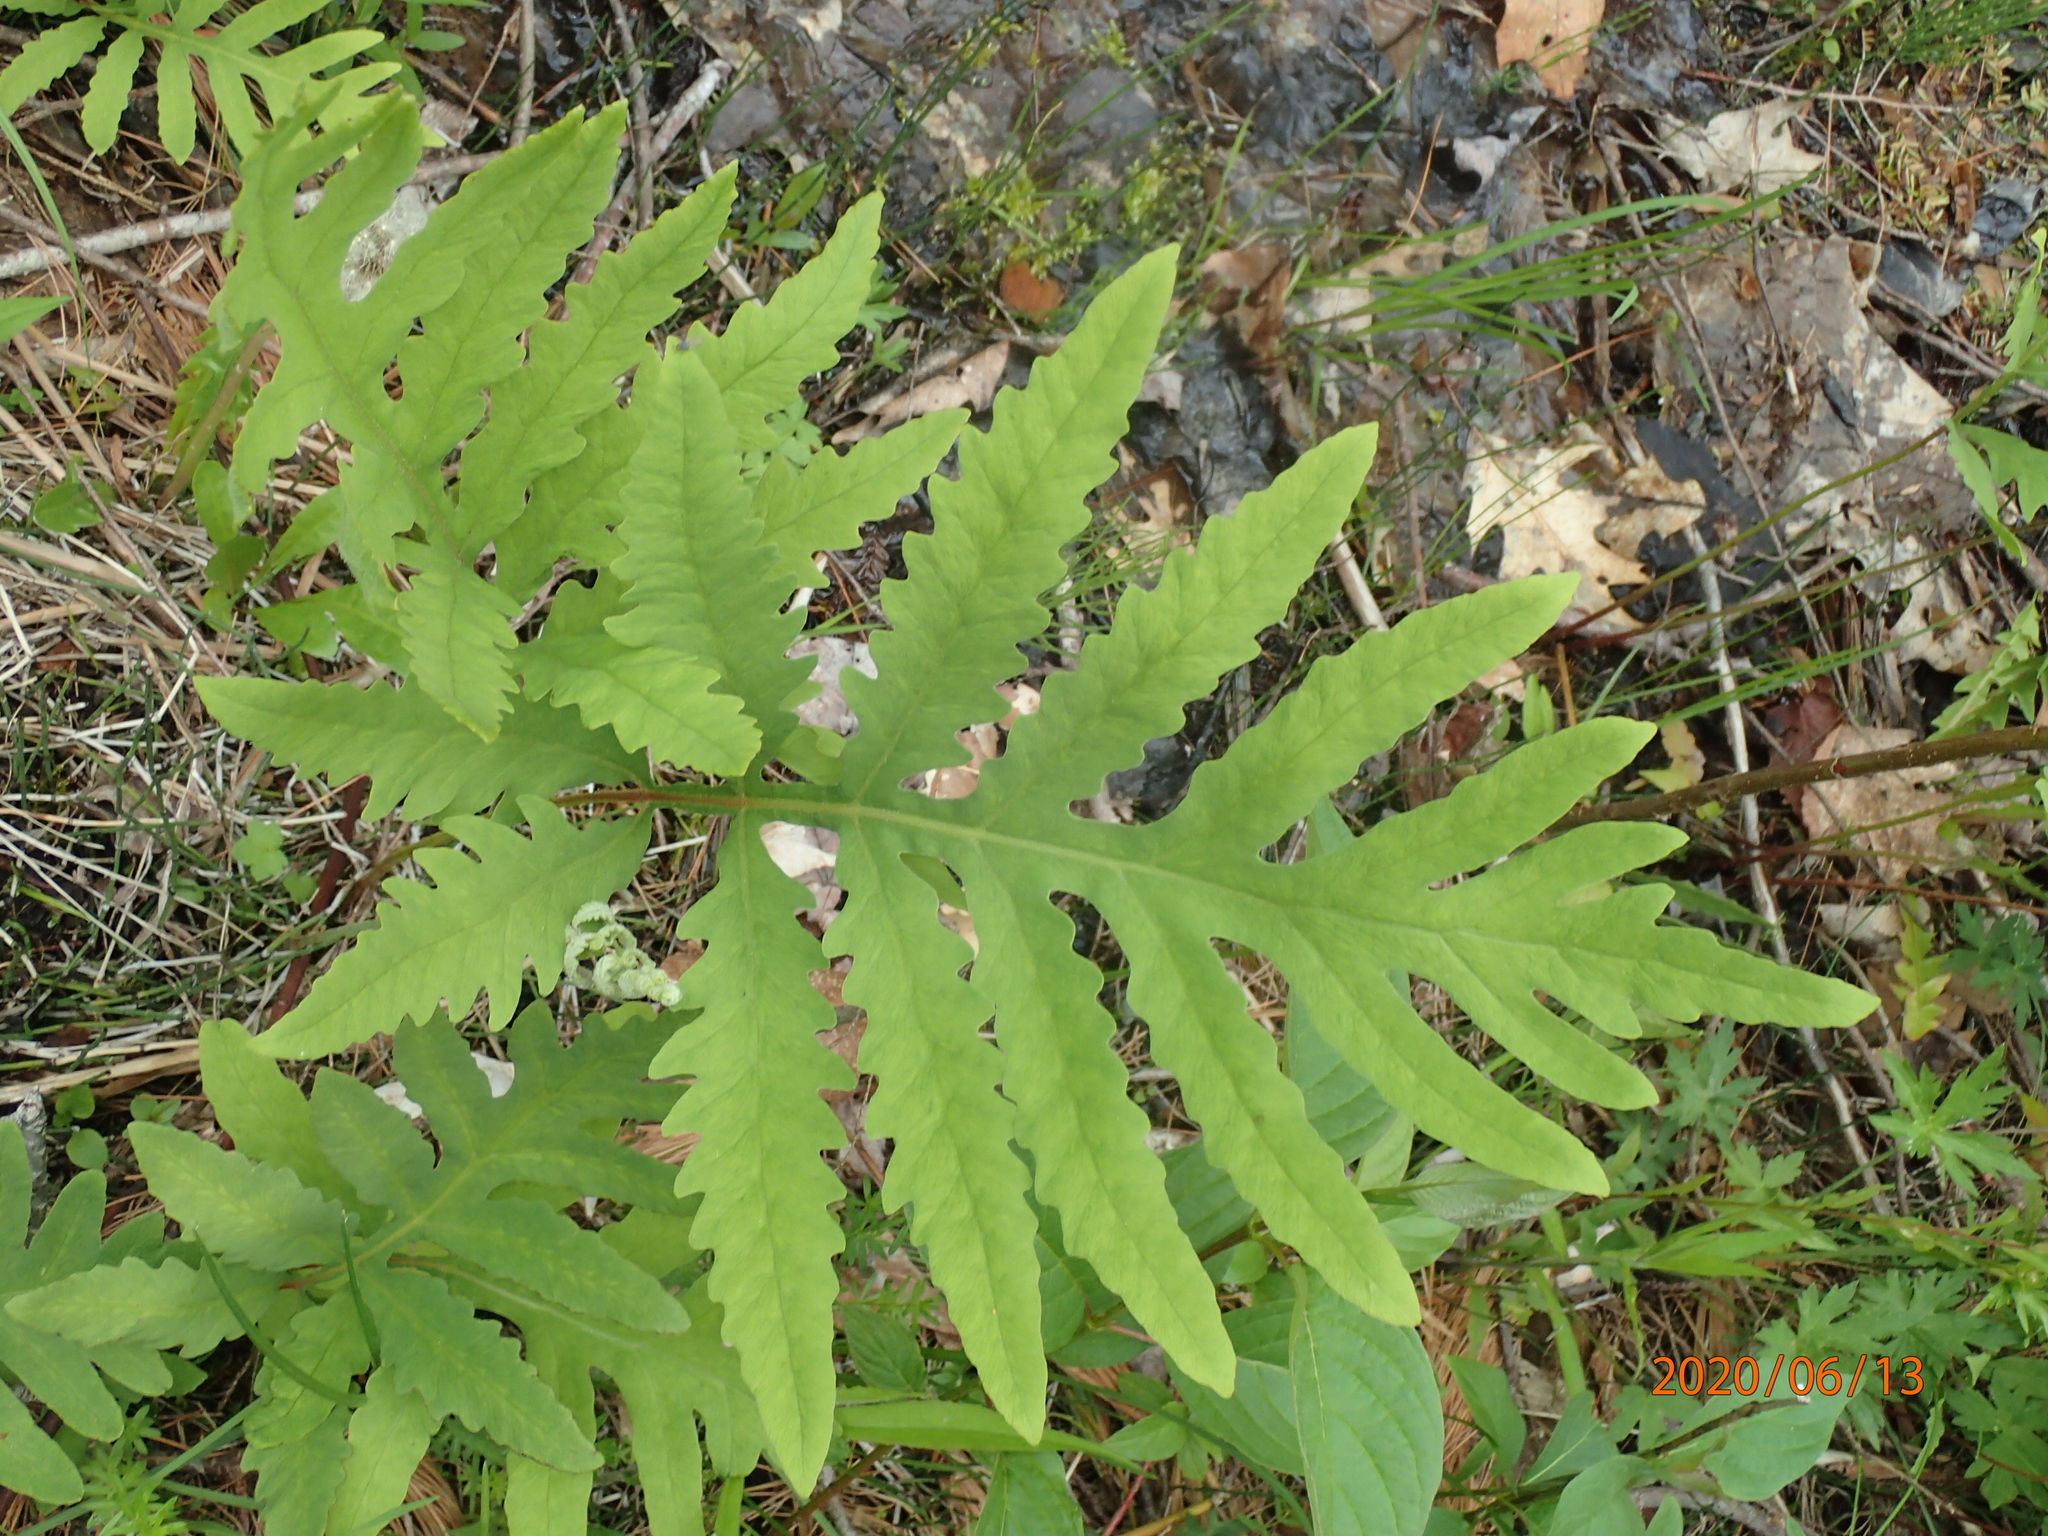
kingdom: Plantae
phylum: Tracheophyta
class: Polypodiopsida
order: Polypodiales
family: Onocleaceae
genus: Onoclea
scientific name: Onoclea sensibilis
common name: Sensitive fern
